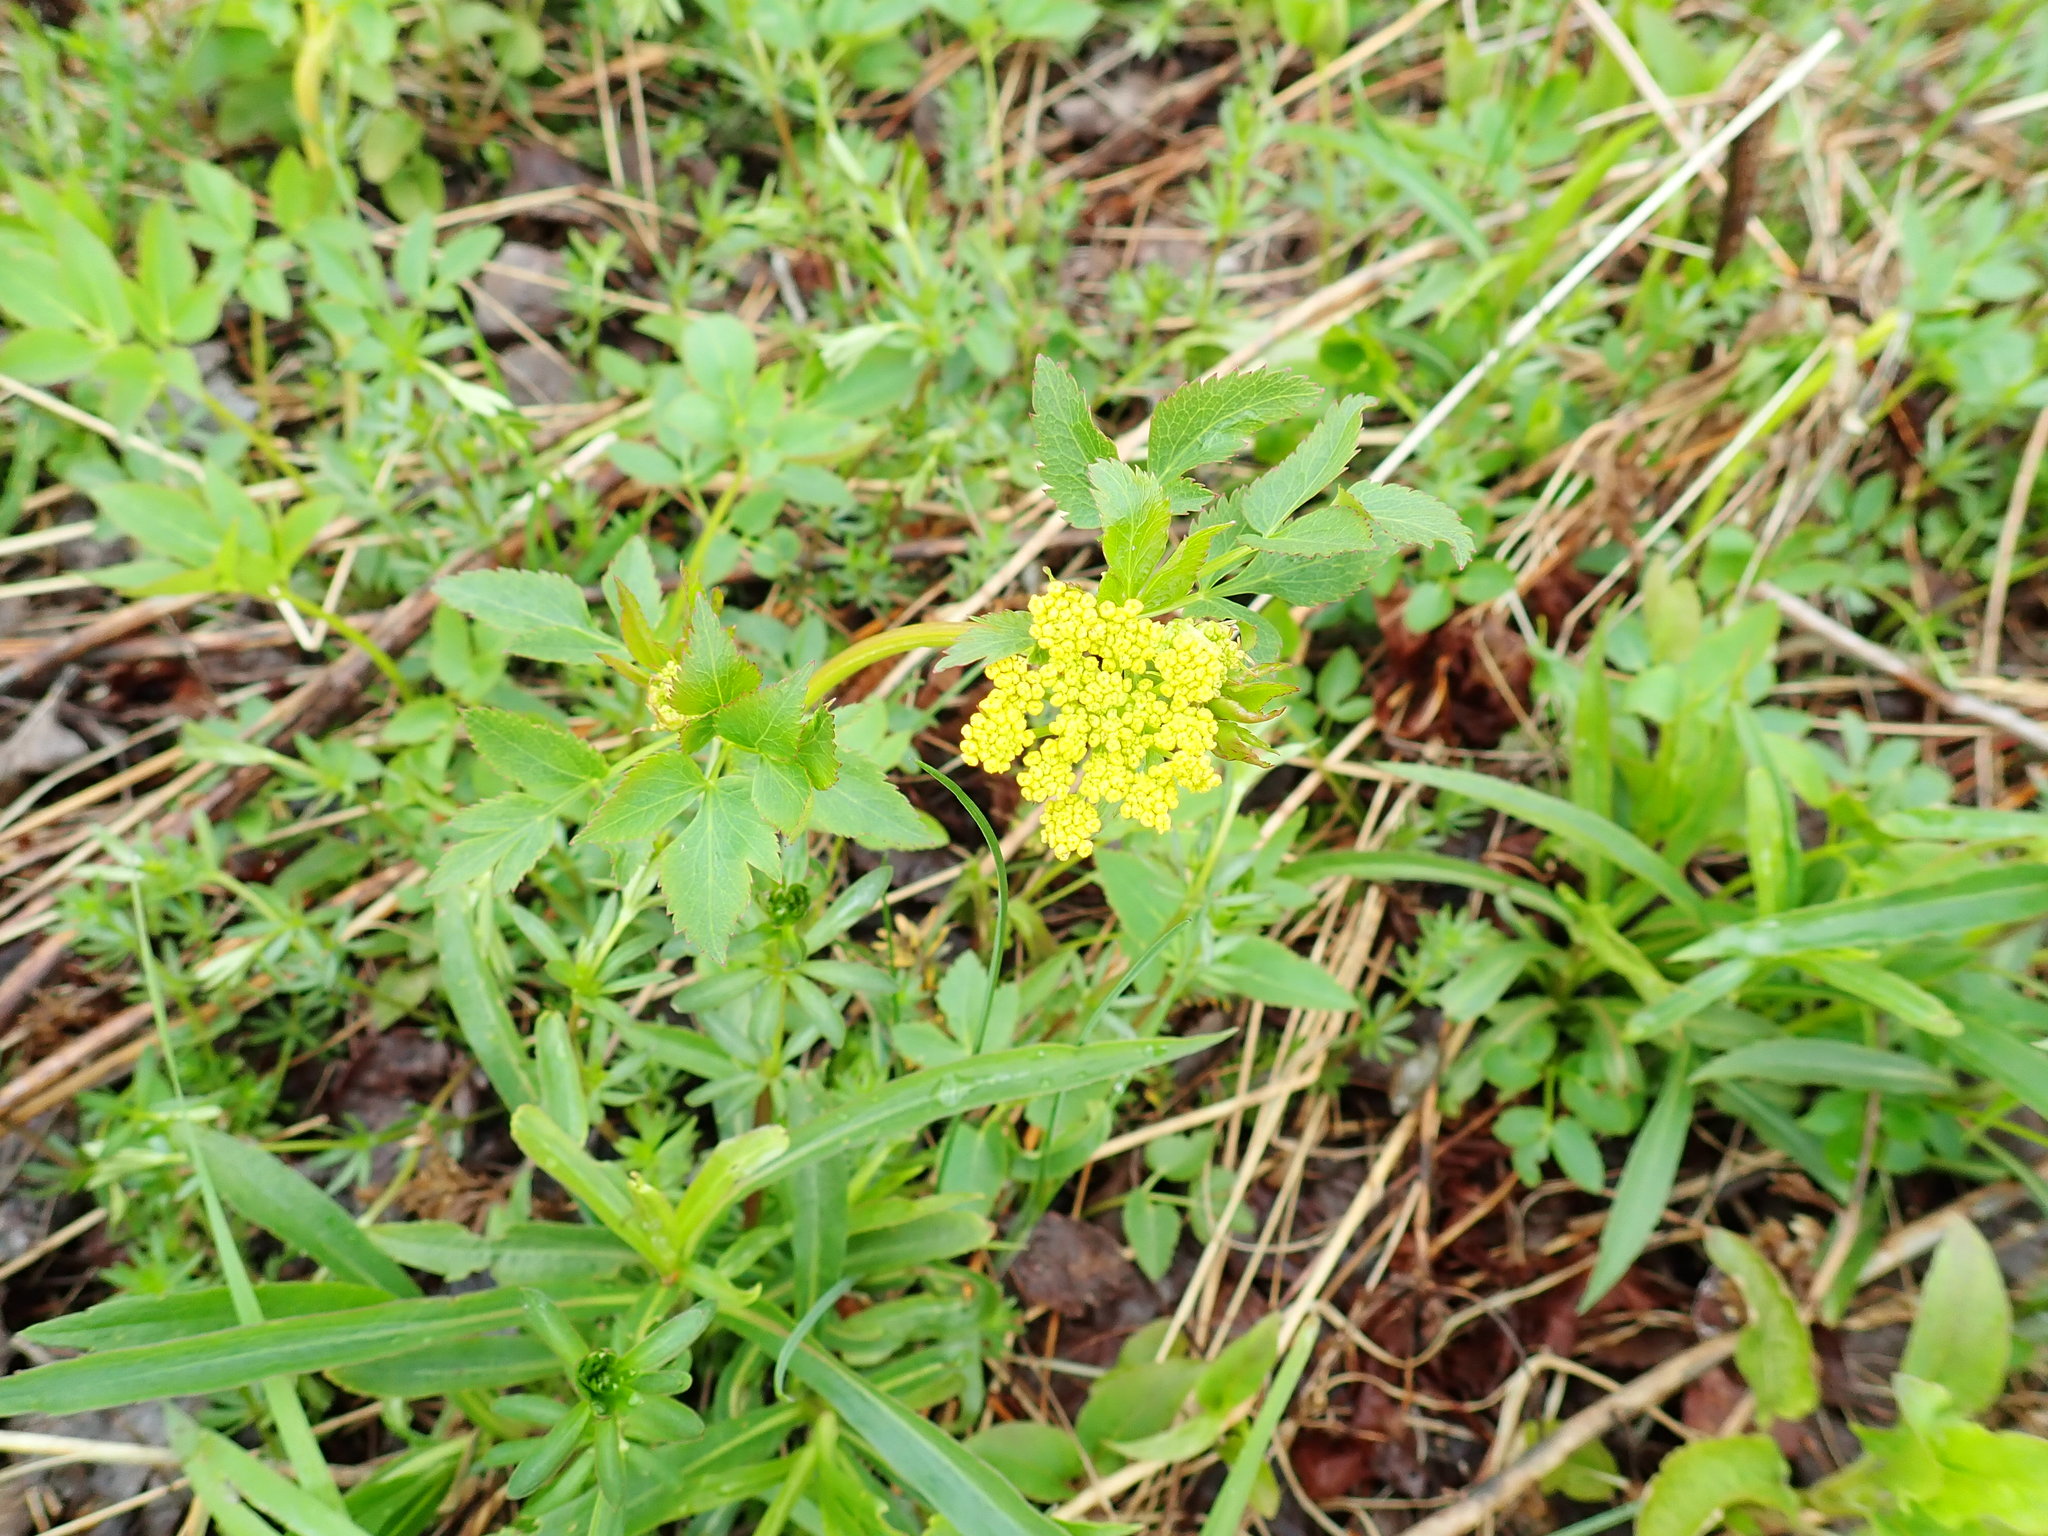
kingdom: Plantae
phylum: Tracheophyta
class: Magnoliopsida
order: Apiales
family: Apiaceae
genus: Zizia
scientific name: Zizia aurea
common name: Golden alexanders
